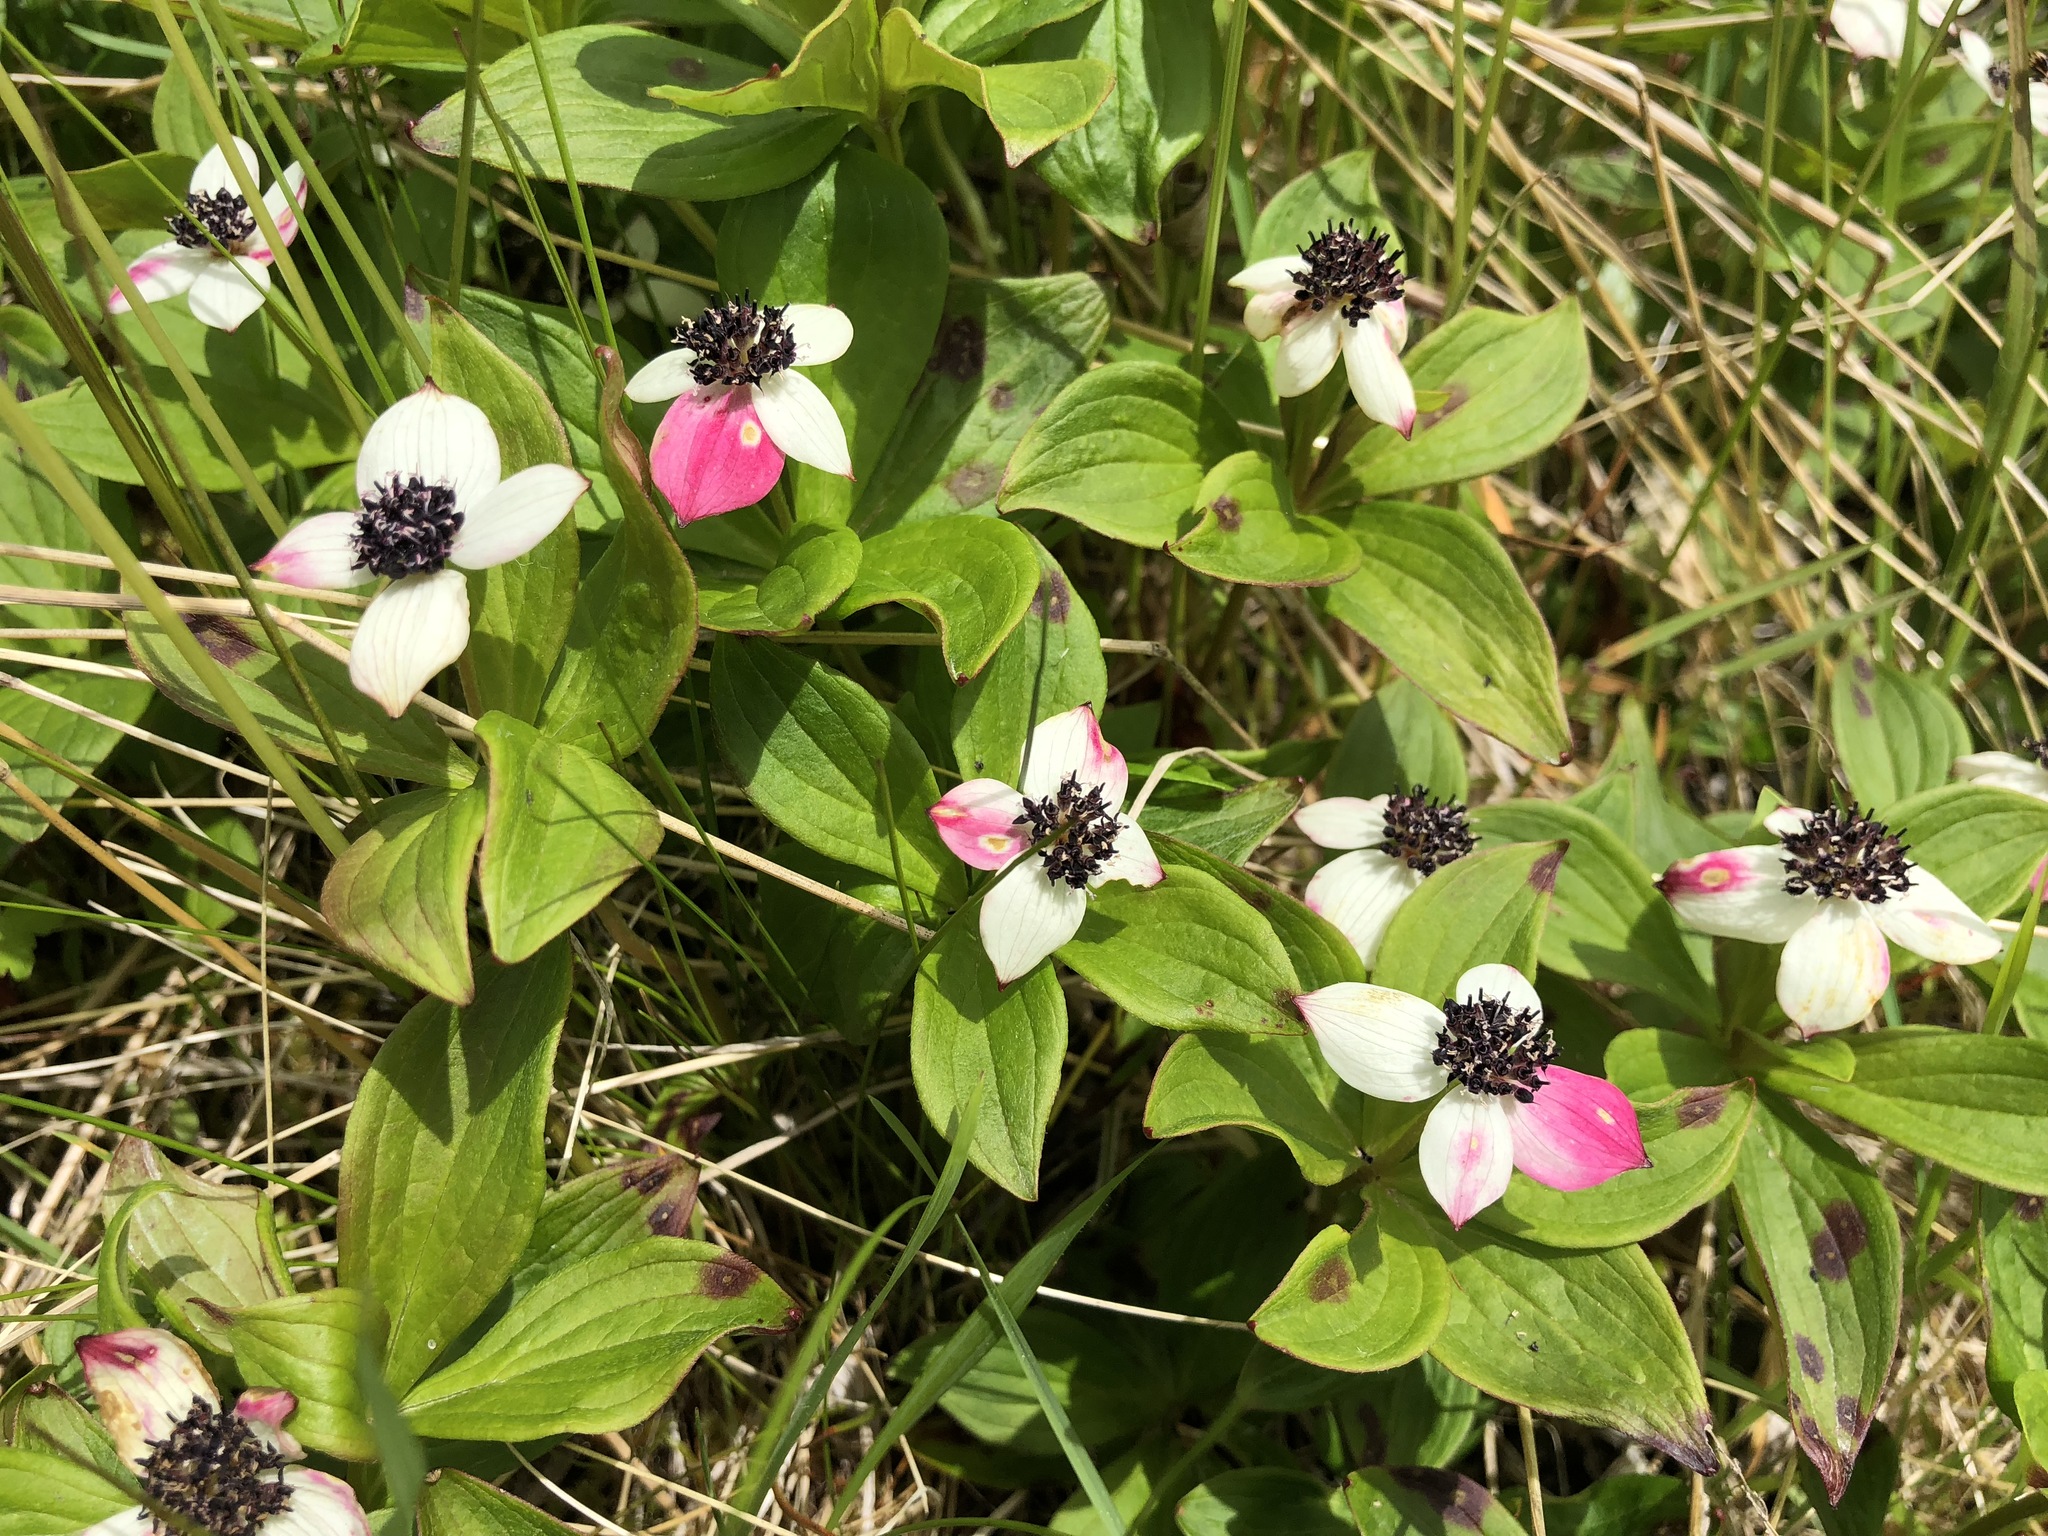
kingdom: Plantae
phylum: Tracheophyta
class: Magnoliopsida
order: Cornales
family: Cornaceae
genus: Cornus
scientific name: Cornus suecica
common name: Dwarf cornel
